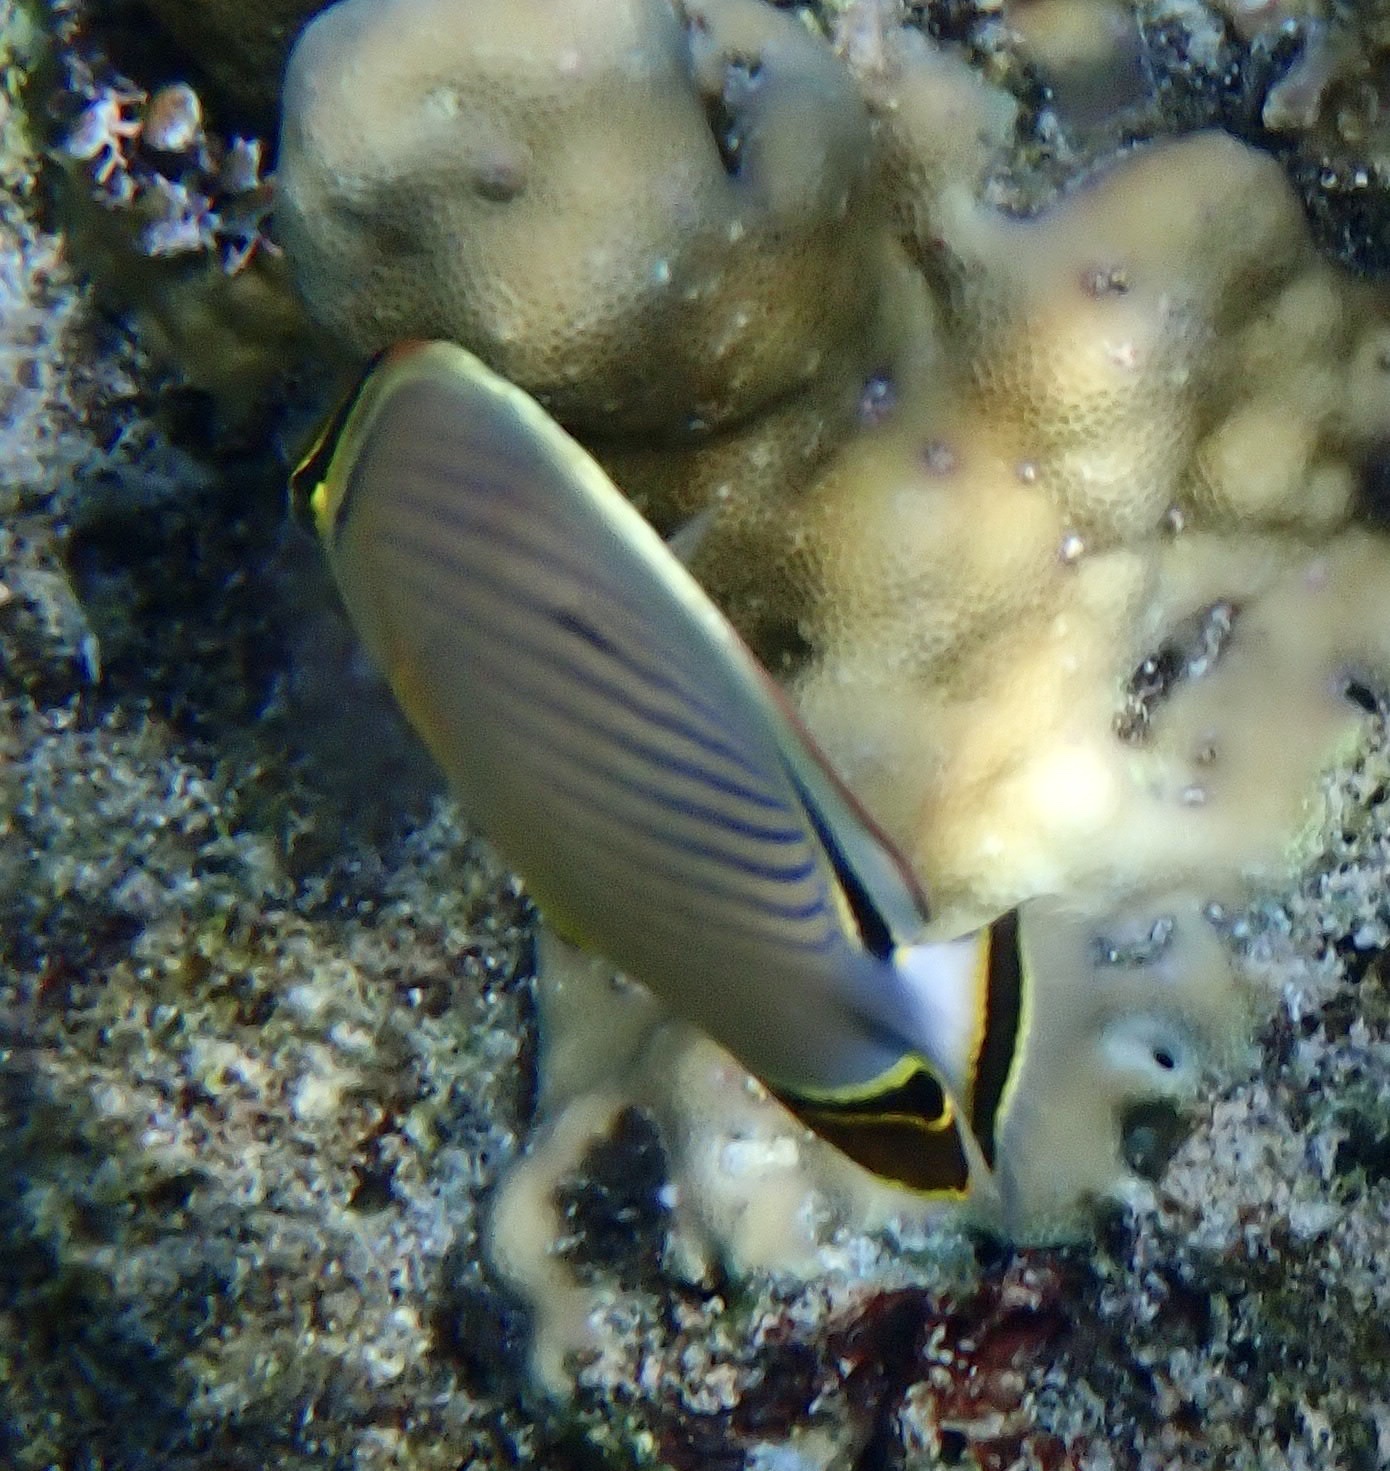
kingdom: Animalia
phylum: Chordata
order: Perciformes
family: Chaetodontidae
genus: Chaetodon
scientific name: Chaetodon lunulatus
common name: Redfin butterflyfish
